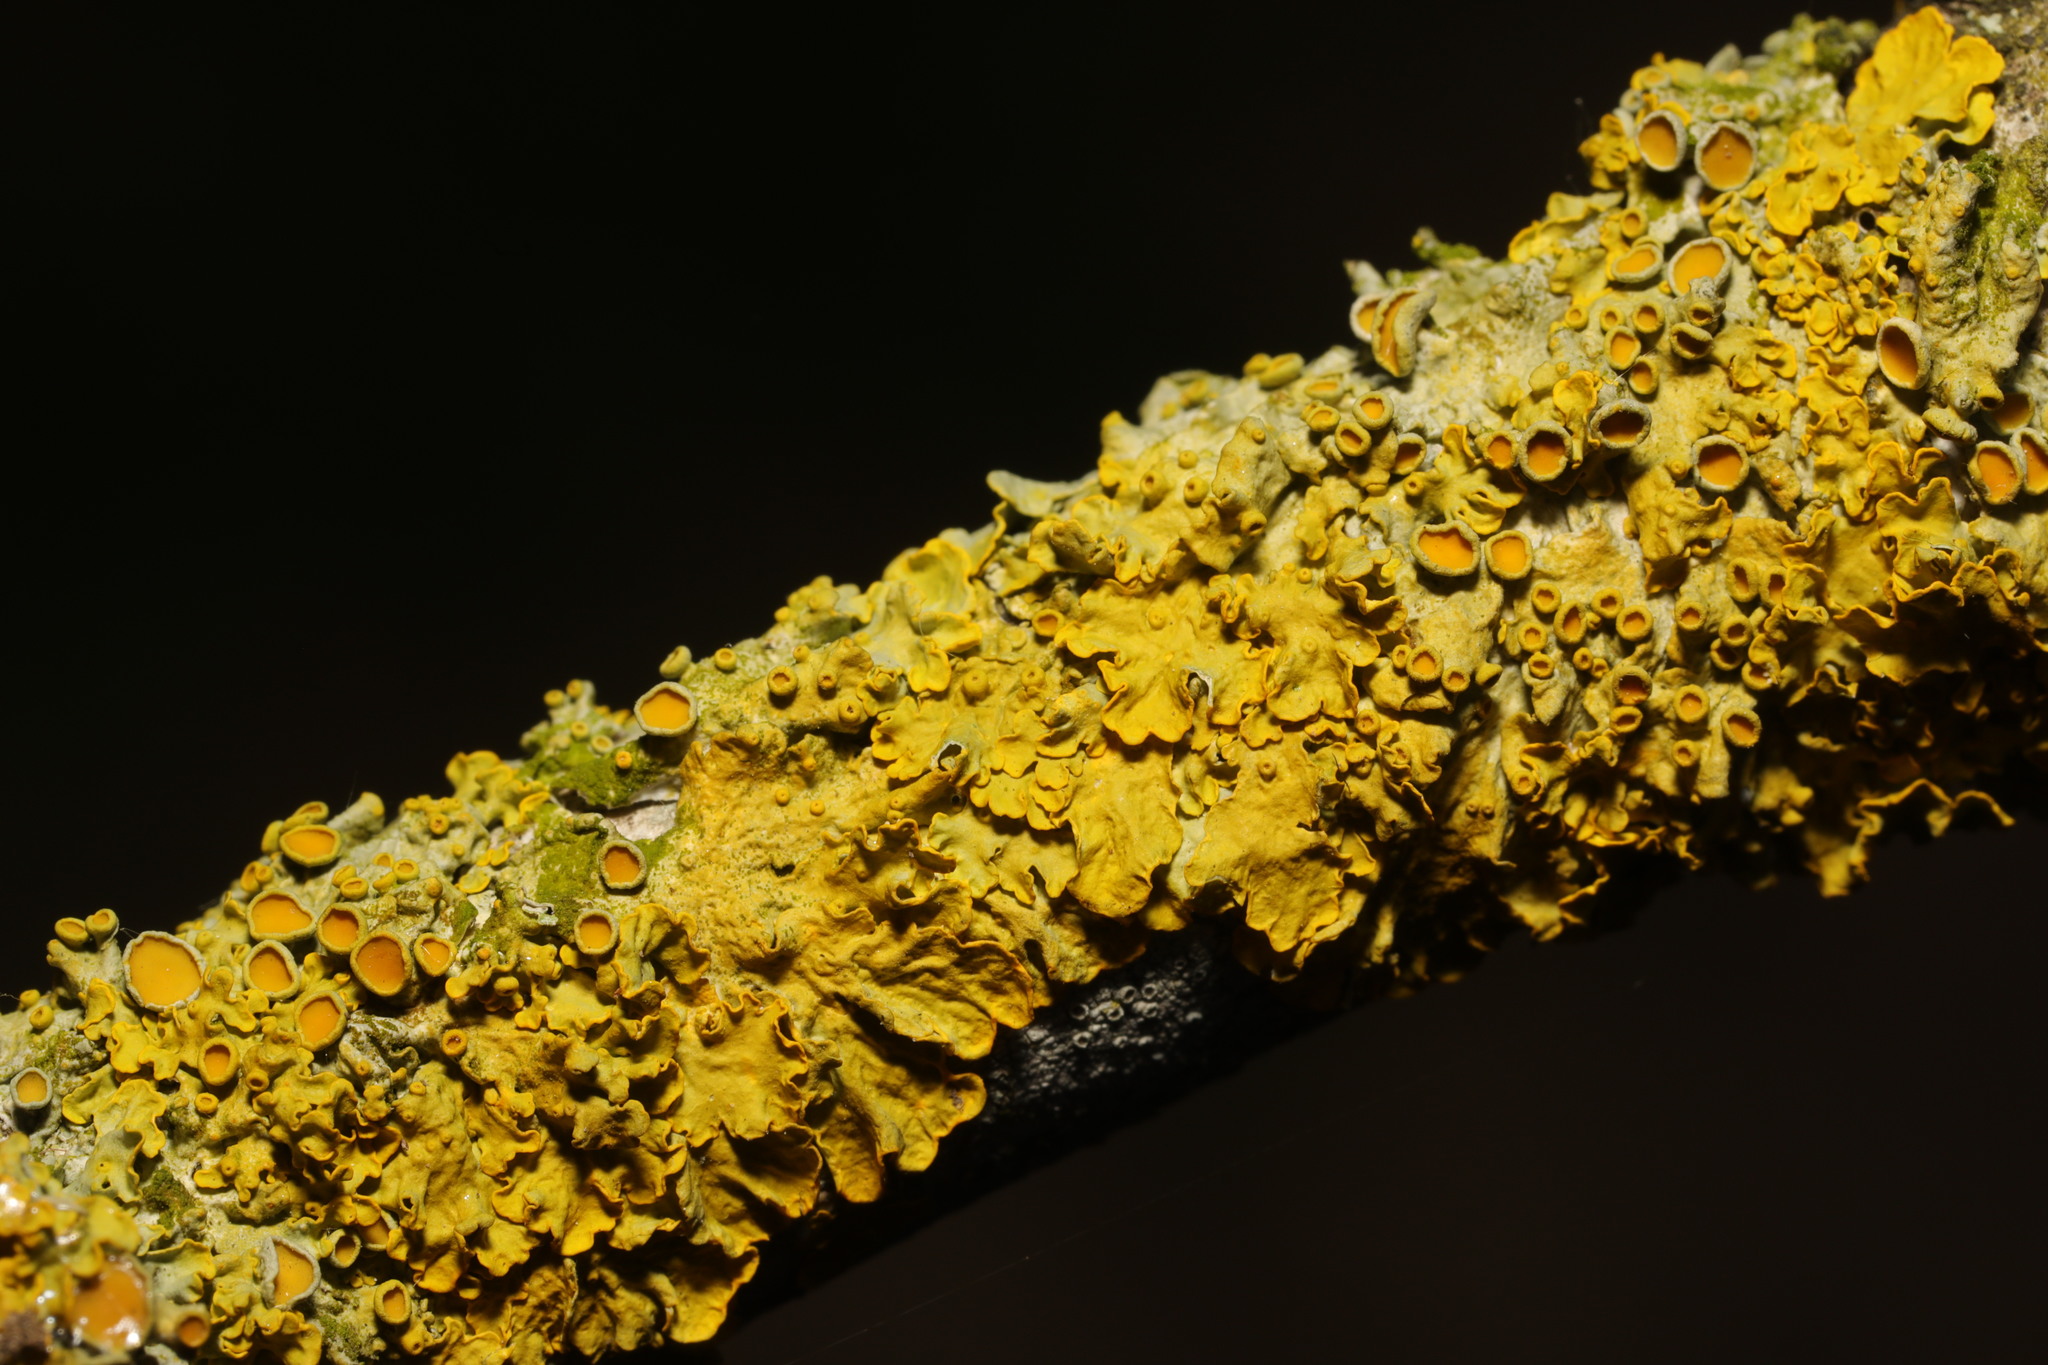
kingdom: Fungi
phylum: Ascomycota
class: Lecanoromycetes
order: Teloschistales
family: Teloschistaceae
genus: Xanthoria
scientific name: Xanthoria parietina
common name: Common orange lichen
